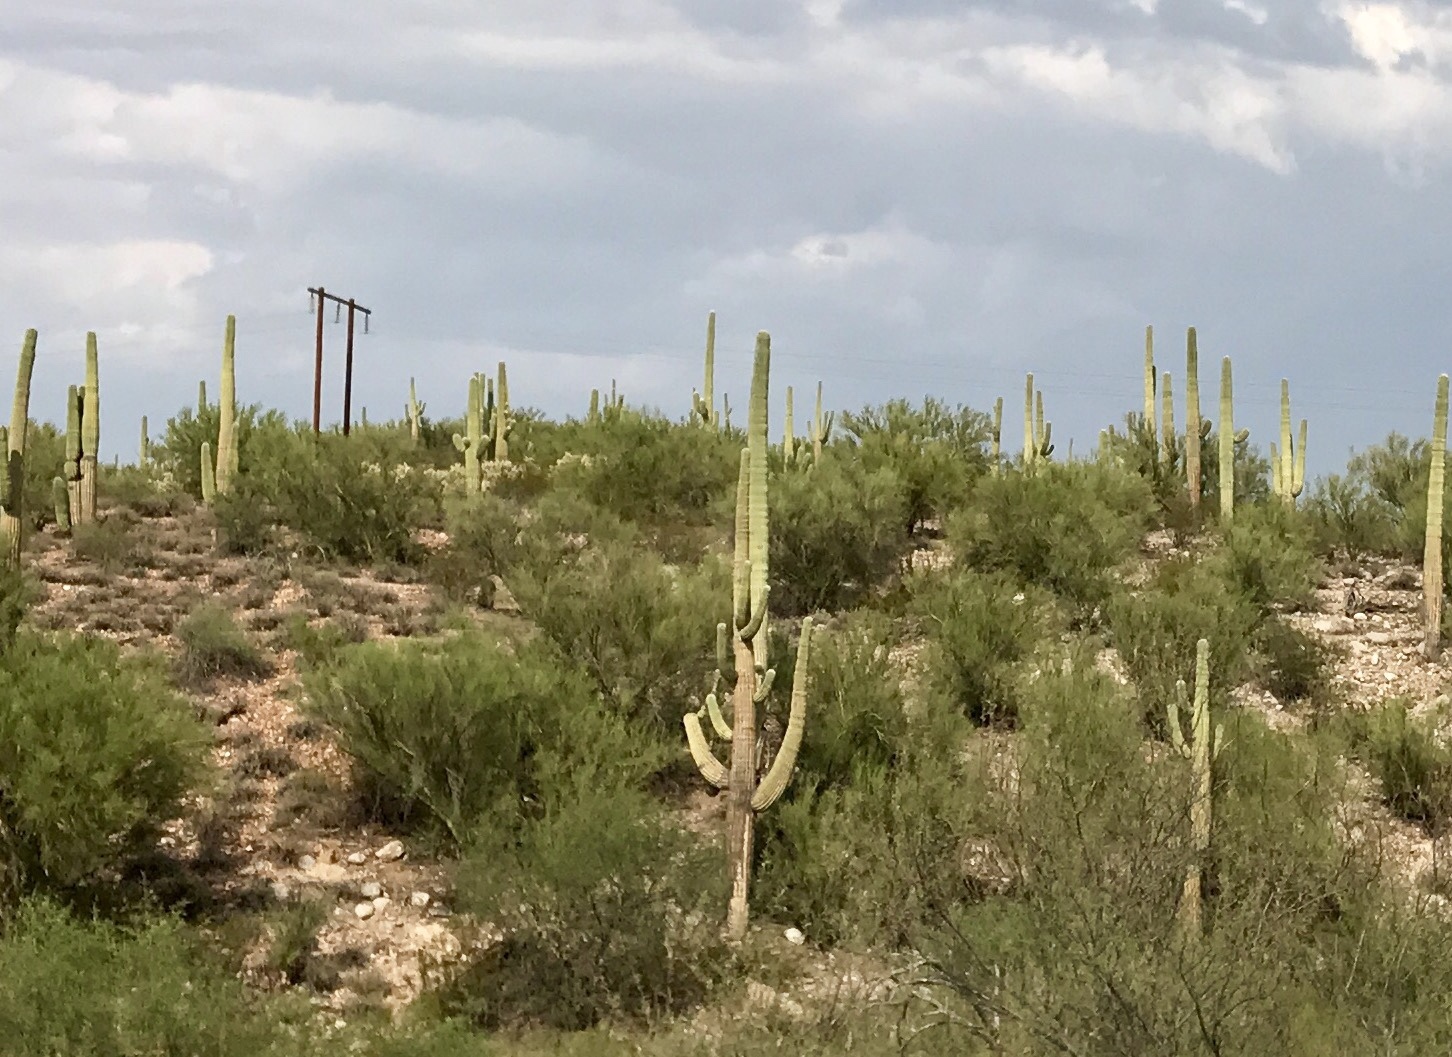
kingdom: Plantae
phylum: Tracheophyta
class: Magnoliopsida
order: Caryophyllales
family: Cactaceae
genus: Carnegiea
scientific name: Carnegiea gigantea
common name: Saguaro
